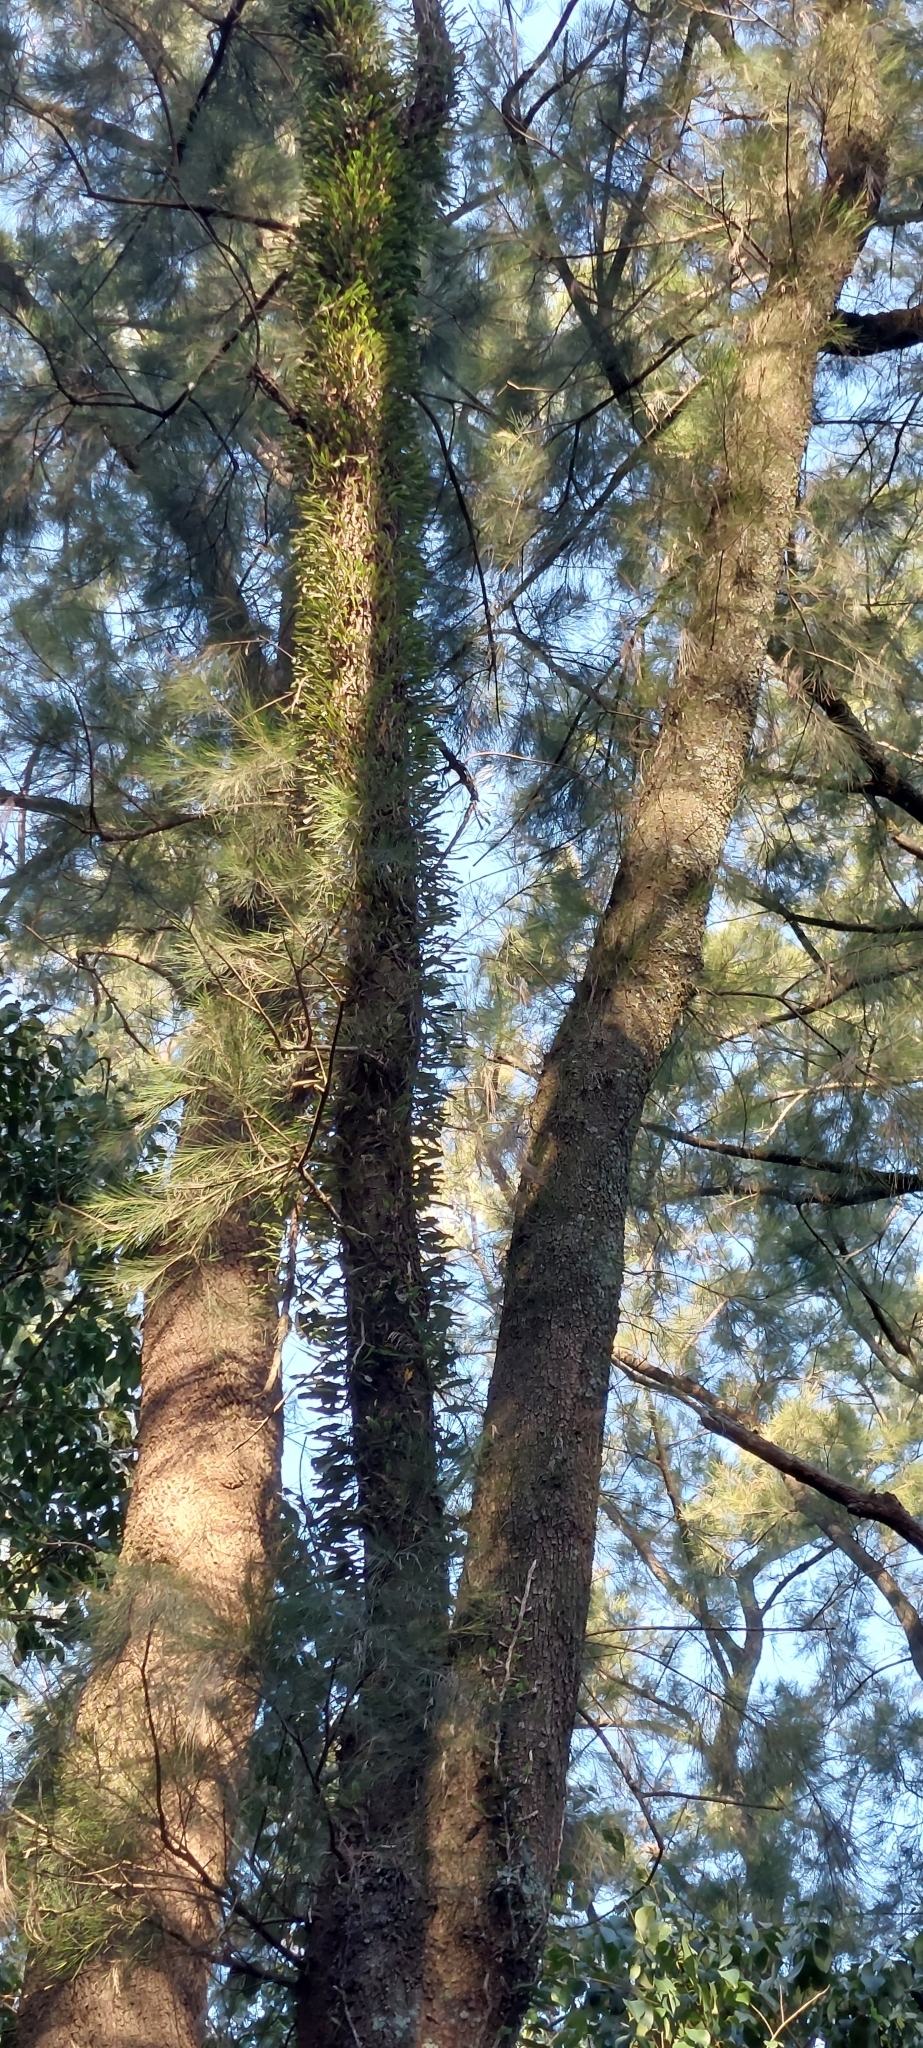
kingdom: Plantae
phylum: Tracheophyta
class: Polypodiopsida
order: Polypodiales
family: Polypodiaceae
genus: Microgramma
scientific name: Microgramma mortoniana
